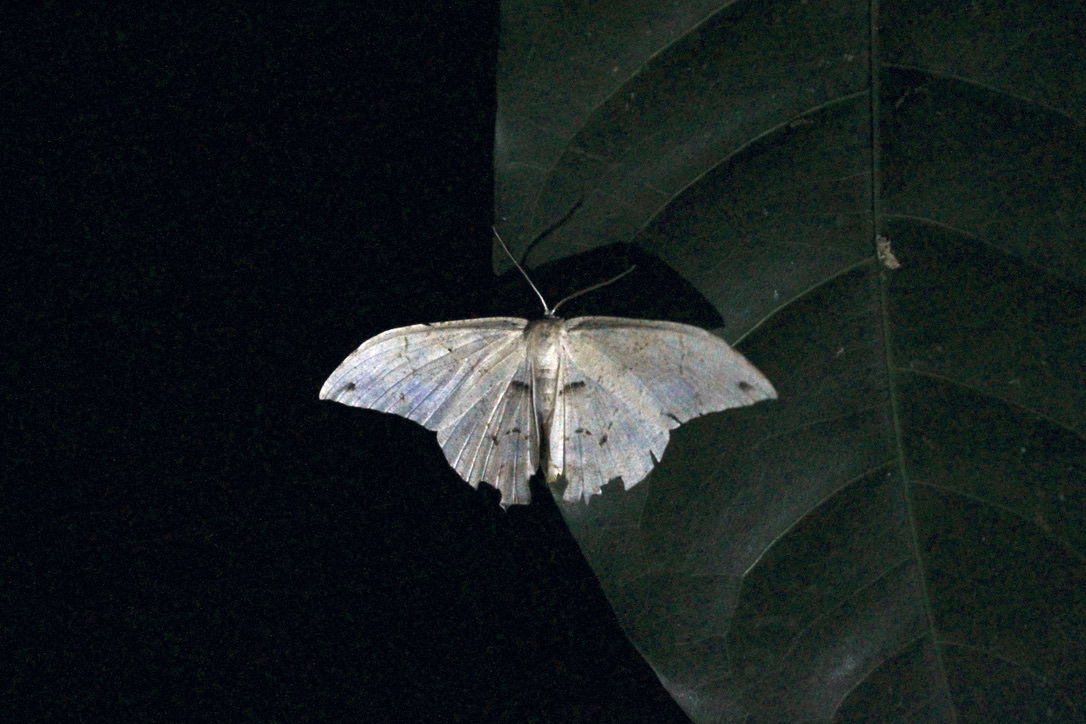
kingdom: Animalia
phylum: Arthropoda
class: Insecta
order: Lepidoptera
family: Uraniidae
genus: Syngria
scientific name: Syngria druidaria
